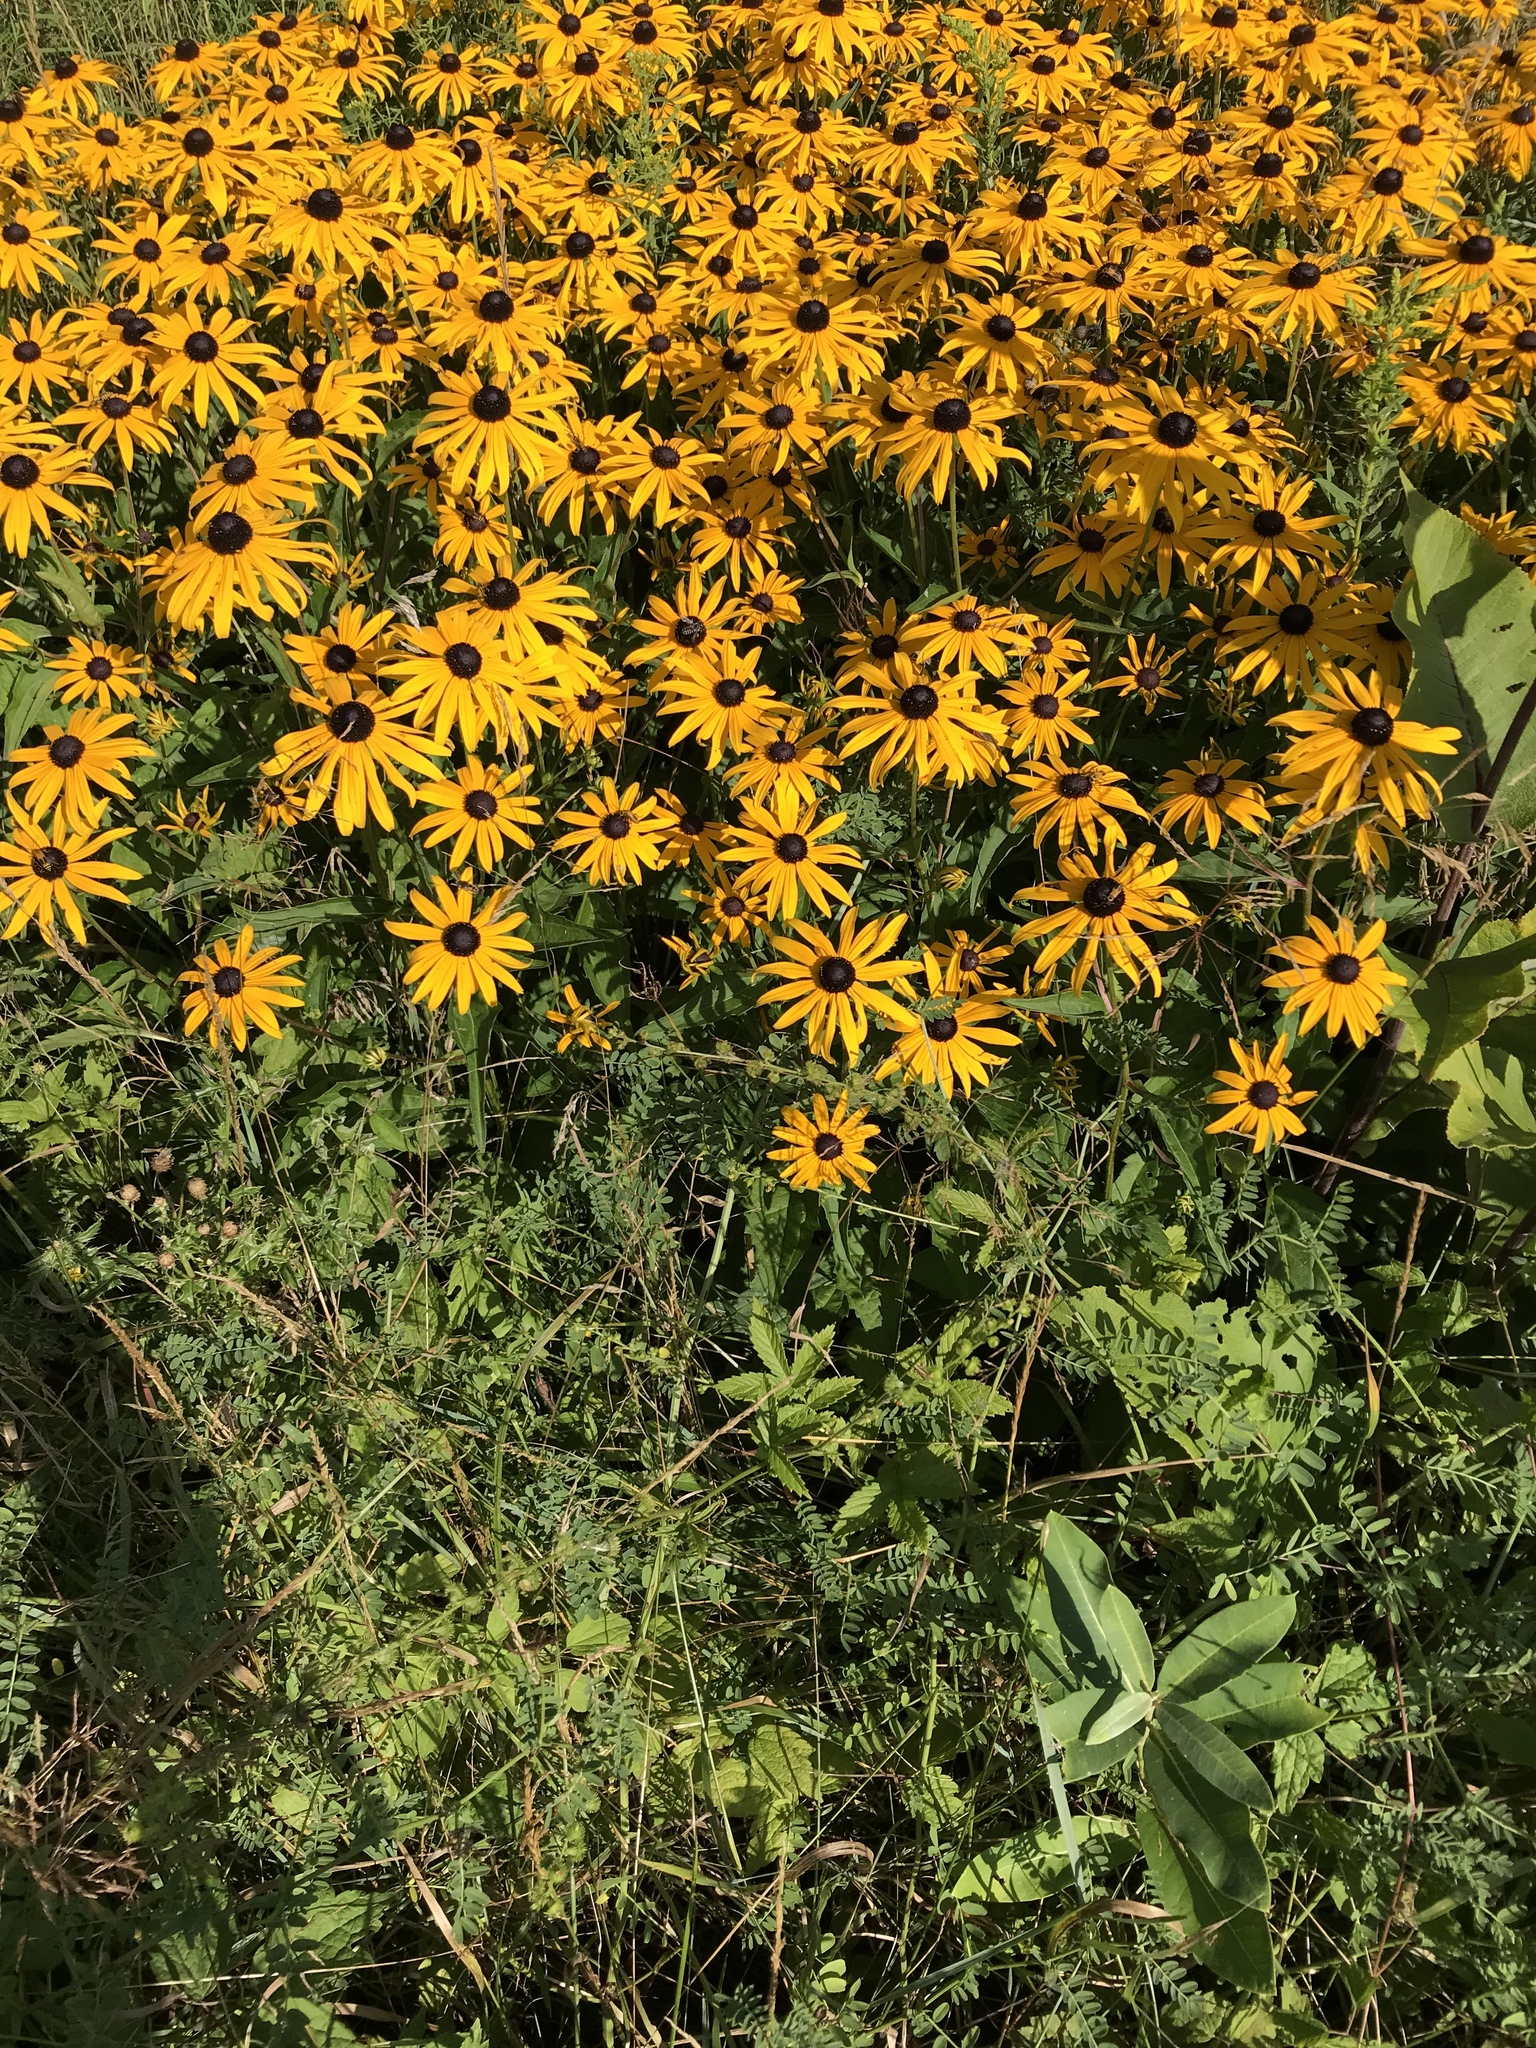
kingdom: Plantae
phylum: Tracheophyta
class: Magnoliopsida
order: Asterales
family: Asteraceae
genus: Rudbeckia
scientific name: Rudbeckia hirta
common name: Black-eyed-susan
